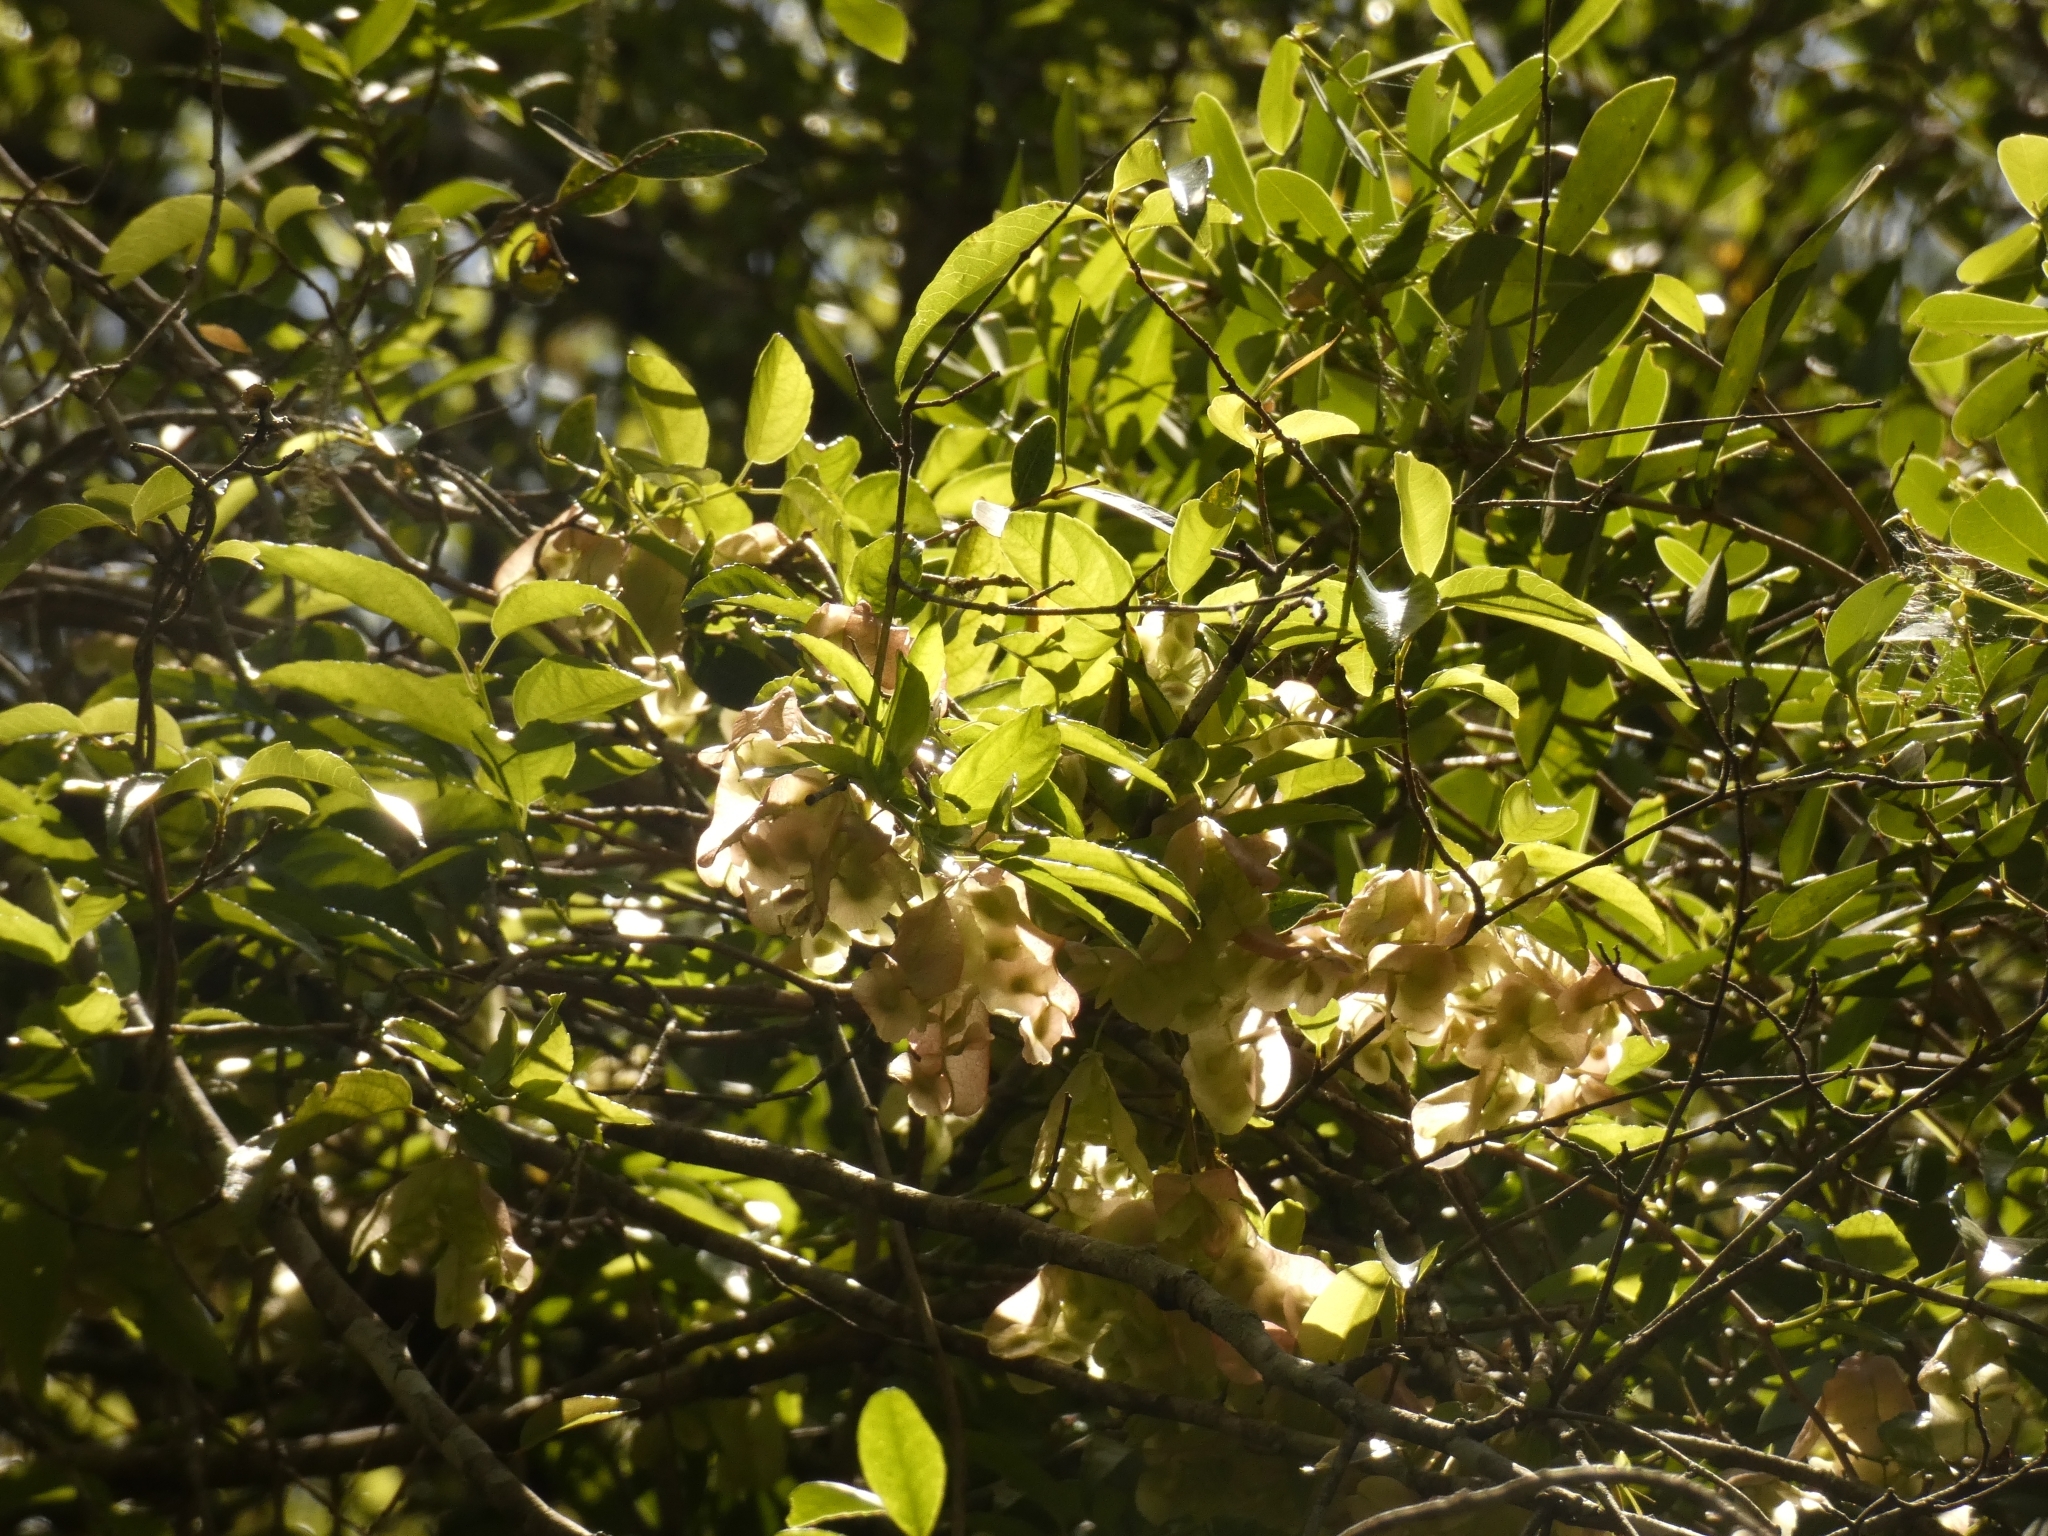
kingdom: Plantae
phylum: Tracheophyta
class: Magnoliopsida
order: Malpighiales
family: Violaceae
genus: Anchietea
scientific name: Anchietea pyrifolia
